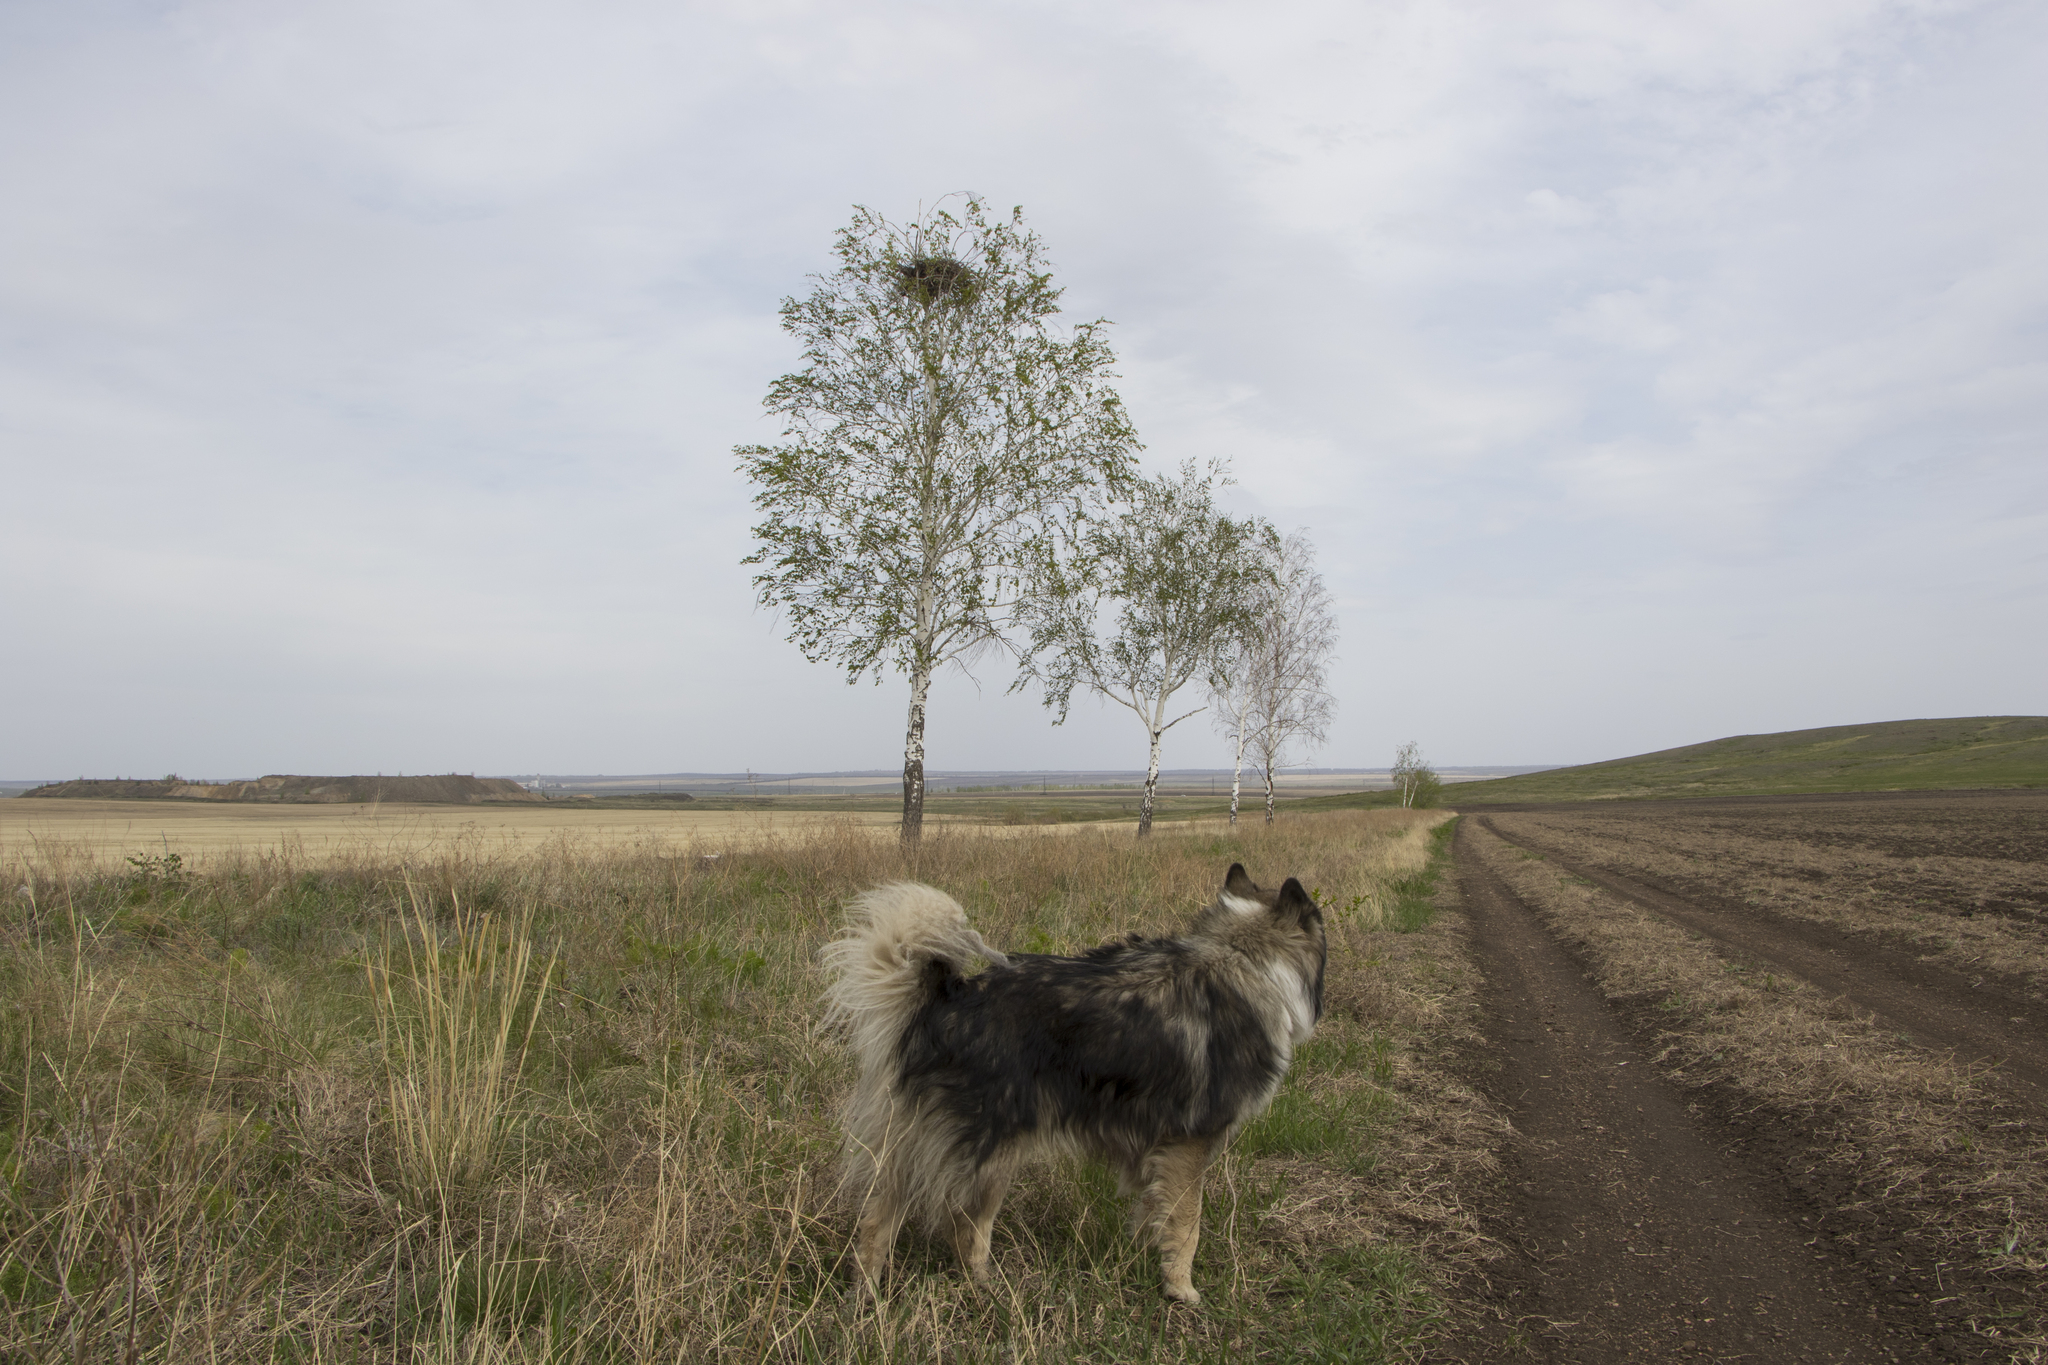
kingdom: Animalia
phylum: Chordata
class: Aves
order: Accipitriformes
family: Accipitridae
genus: Aquila
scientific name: Aquila heliaca
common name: Eastern imperial eagle
